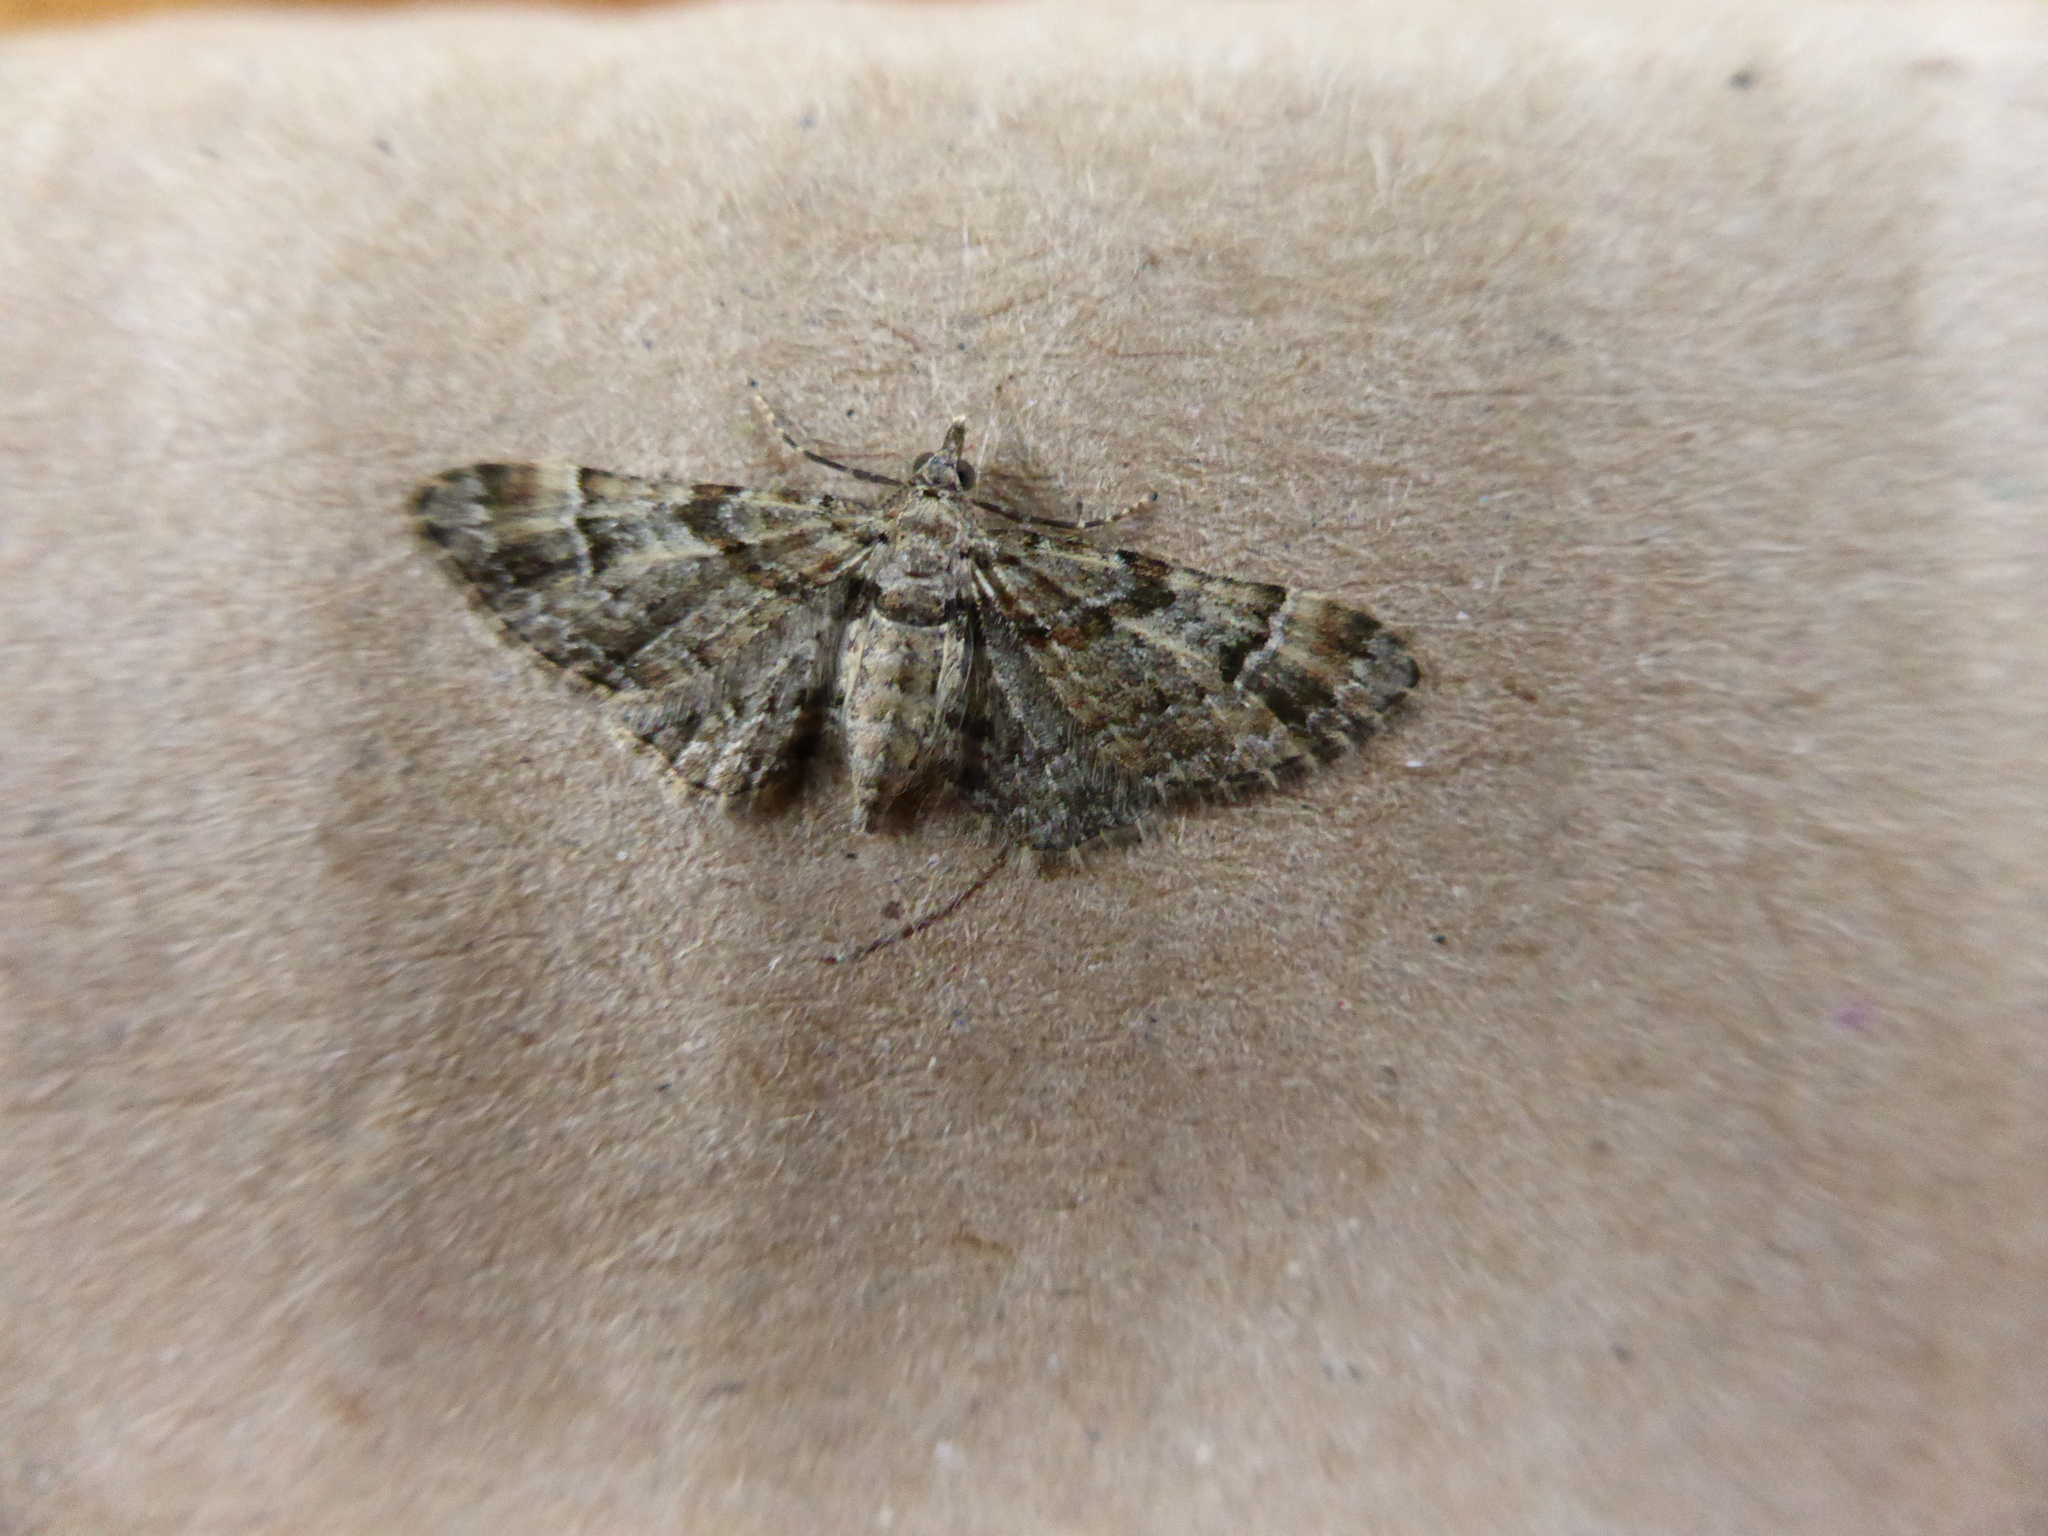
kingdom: Animalia
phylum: Arthropoda
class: Insecta
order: Lepidoptera
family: Geometridae
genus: Gymnoscelis
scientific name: Gymnoscelis rufifasciata
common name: Double-striped pug
